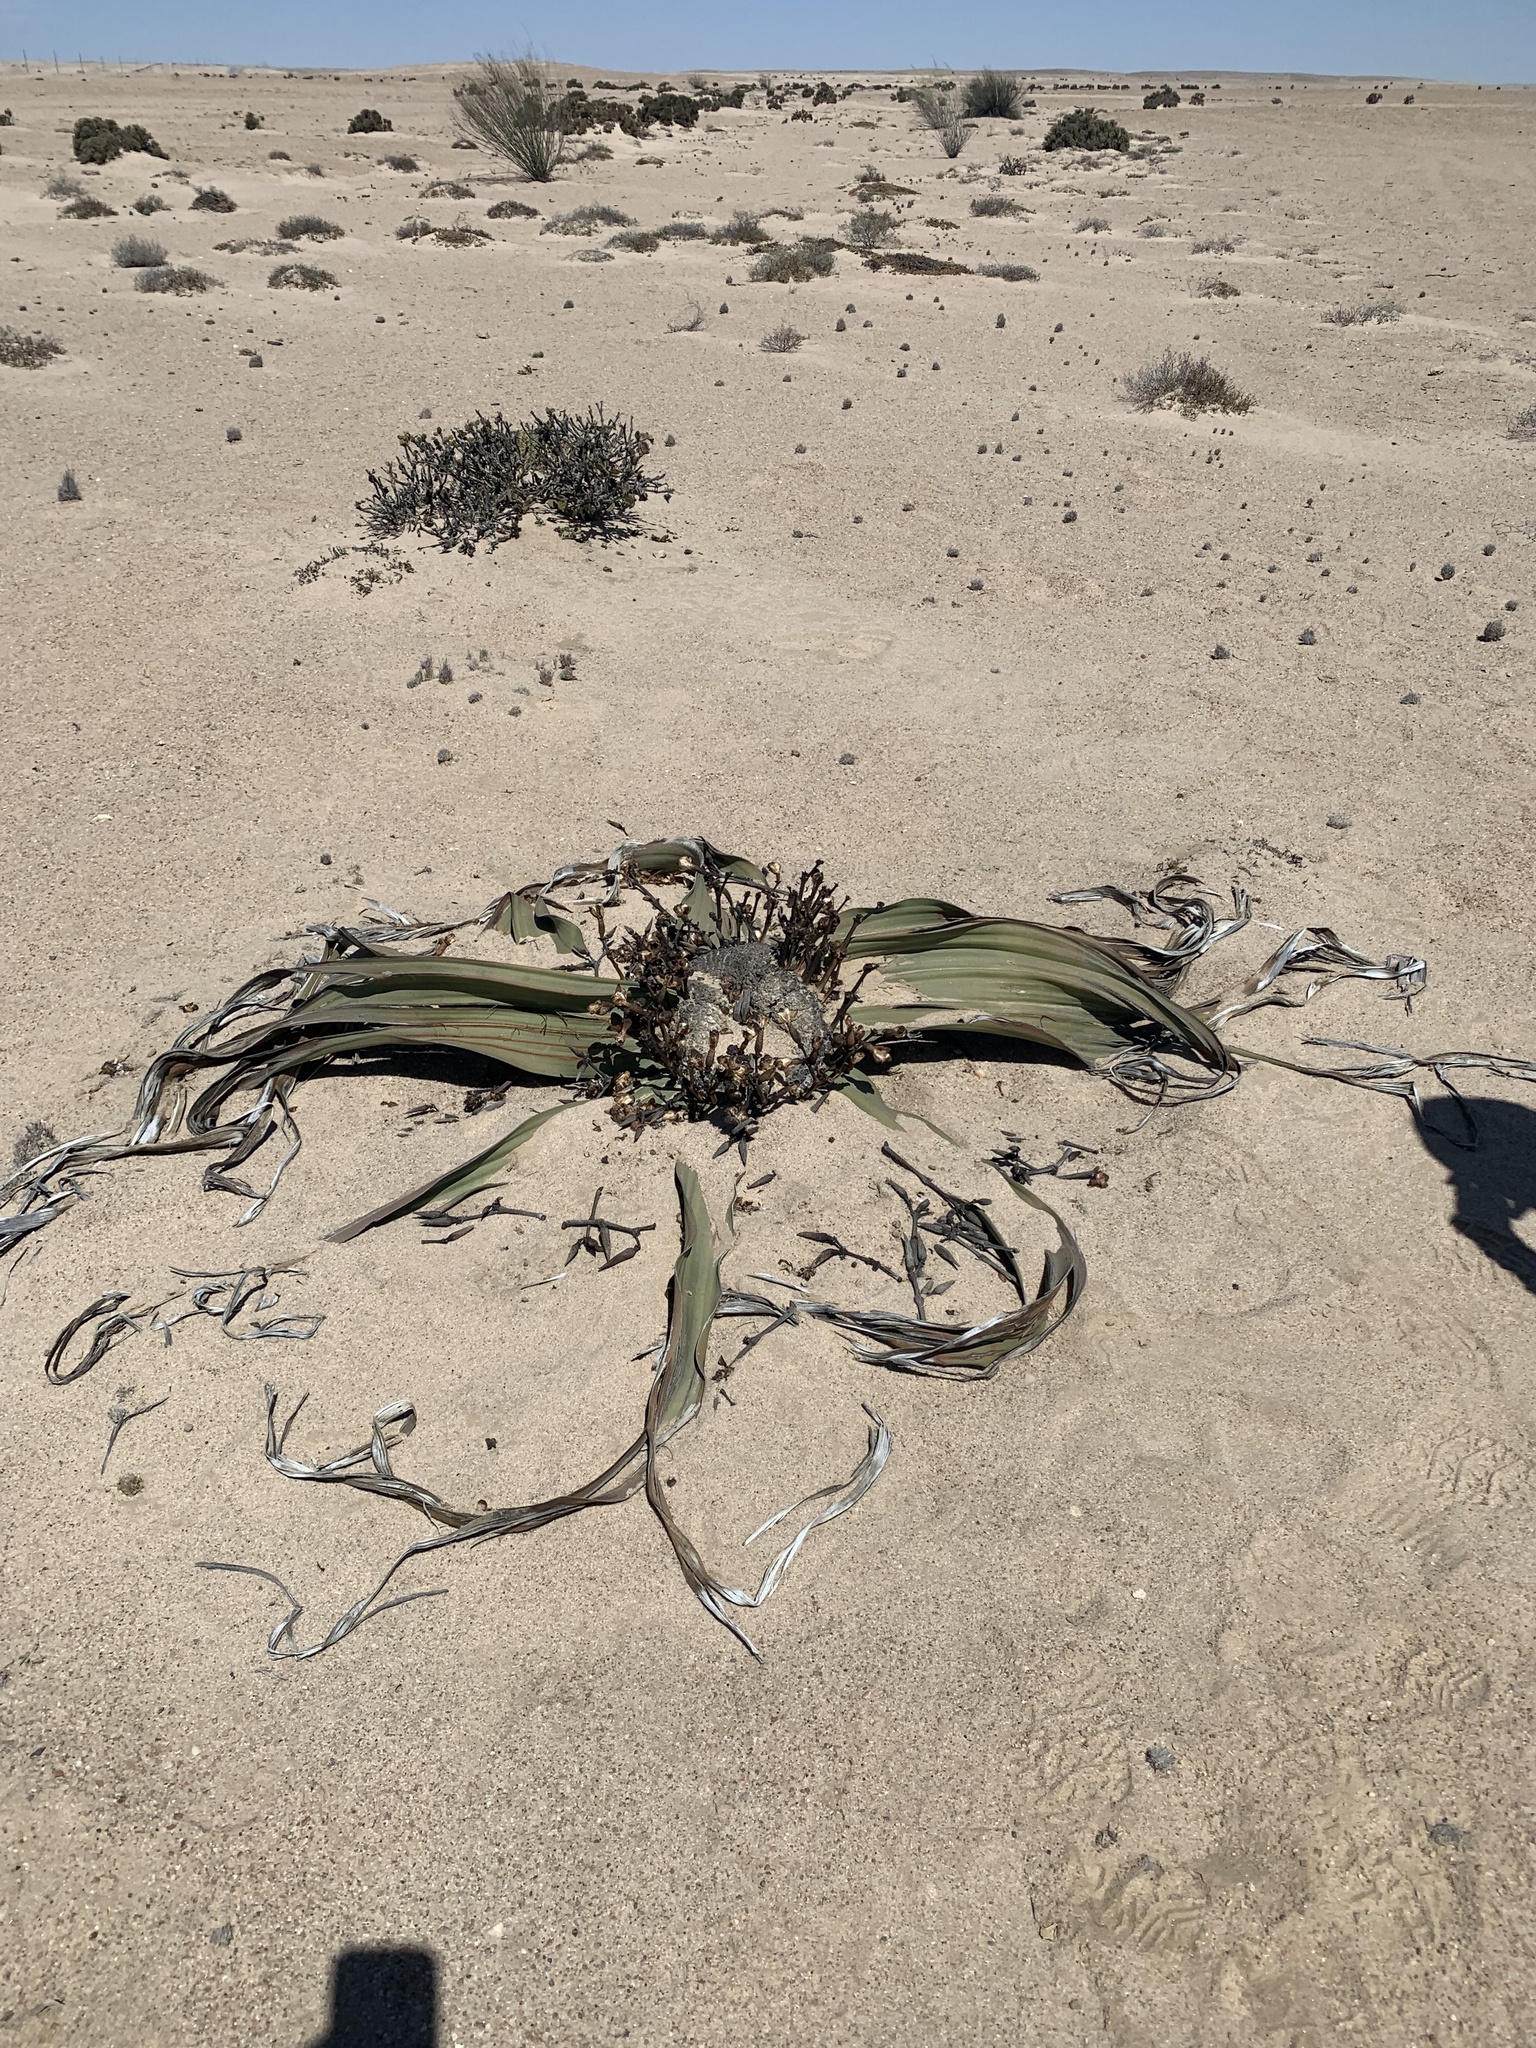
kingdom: Plantae
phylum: Tracheophyta
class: Gnetopsida
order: Welwitschiales
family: Welwitschiaceae
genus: Welwitschia
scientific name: Welwitschia mirabilis
